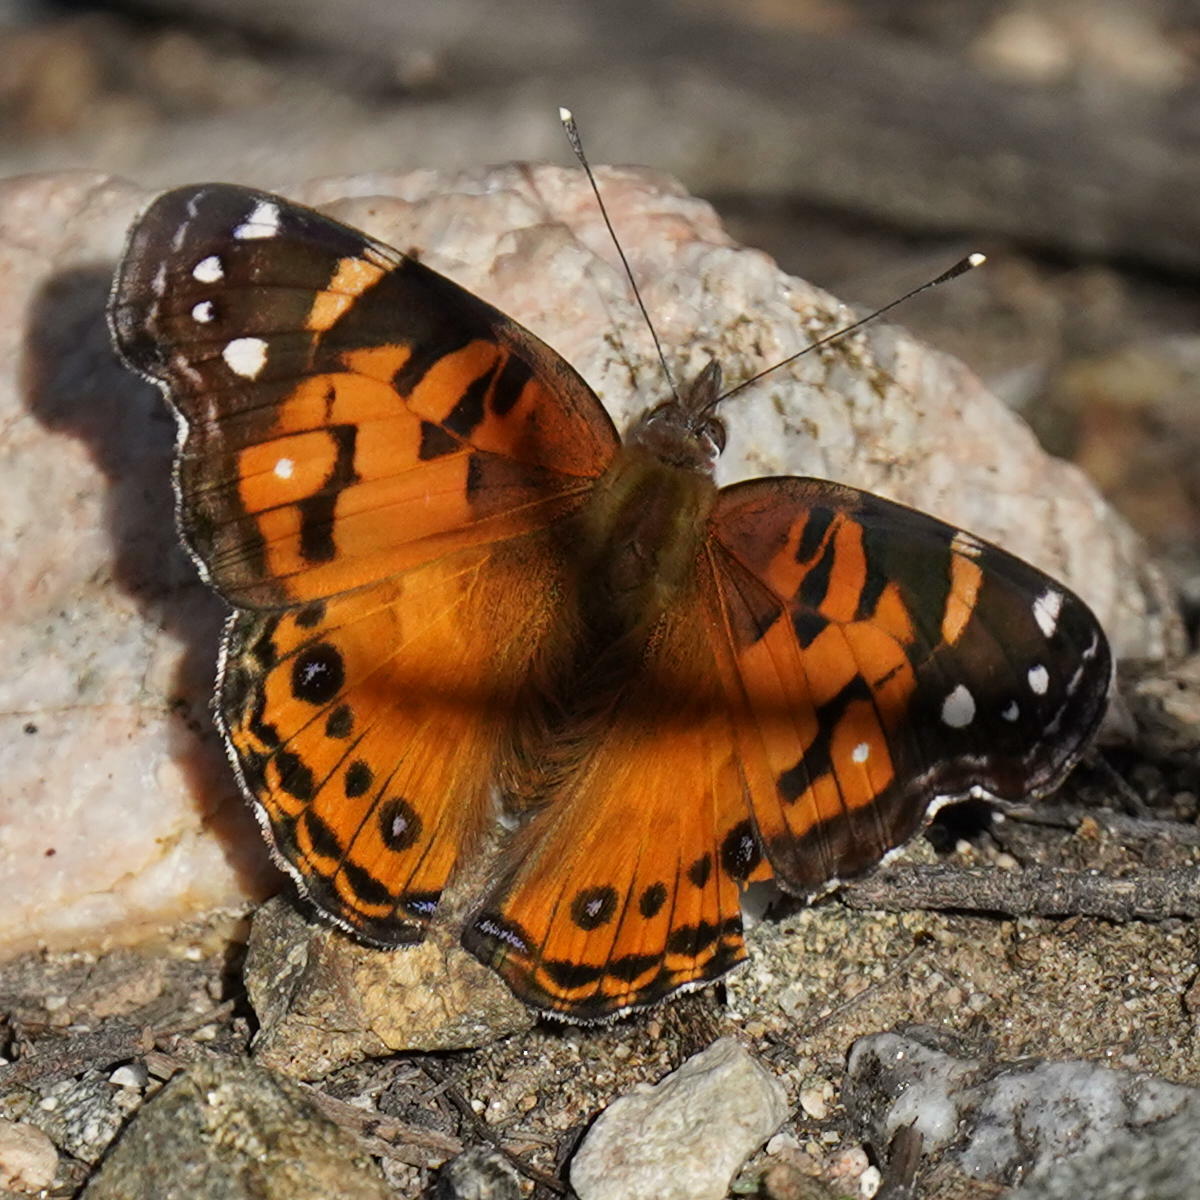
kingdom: Animalia
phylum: Arthropoda
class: Insecta
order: Lepidoptera
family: Nymphalidae
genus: Vanessa
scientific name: Vanessa virginiensis
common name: American lady
